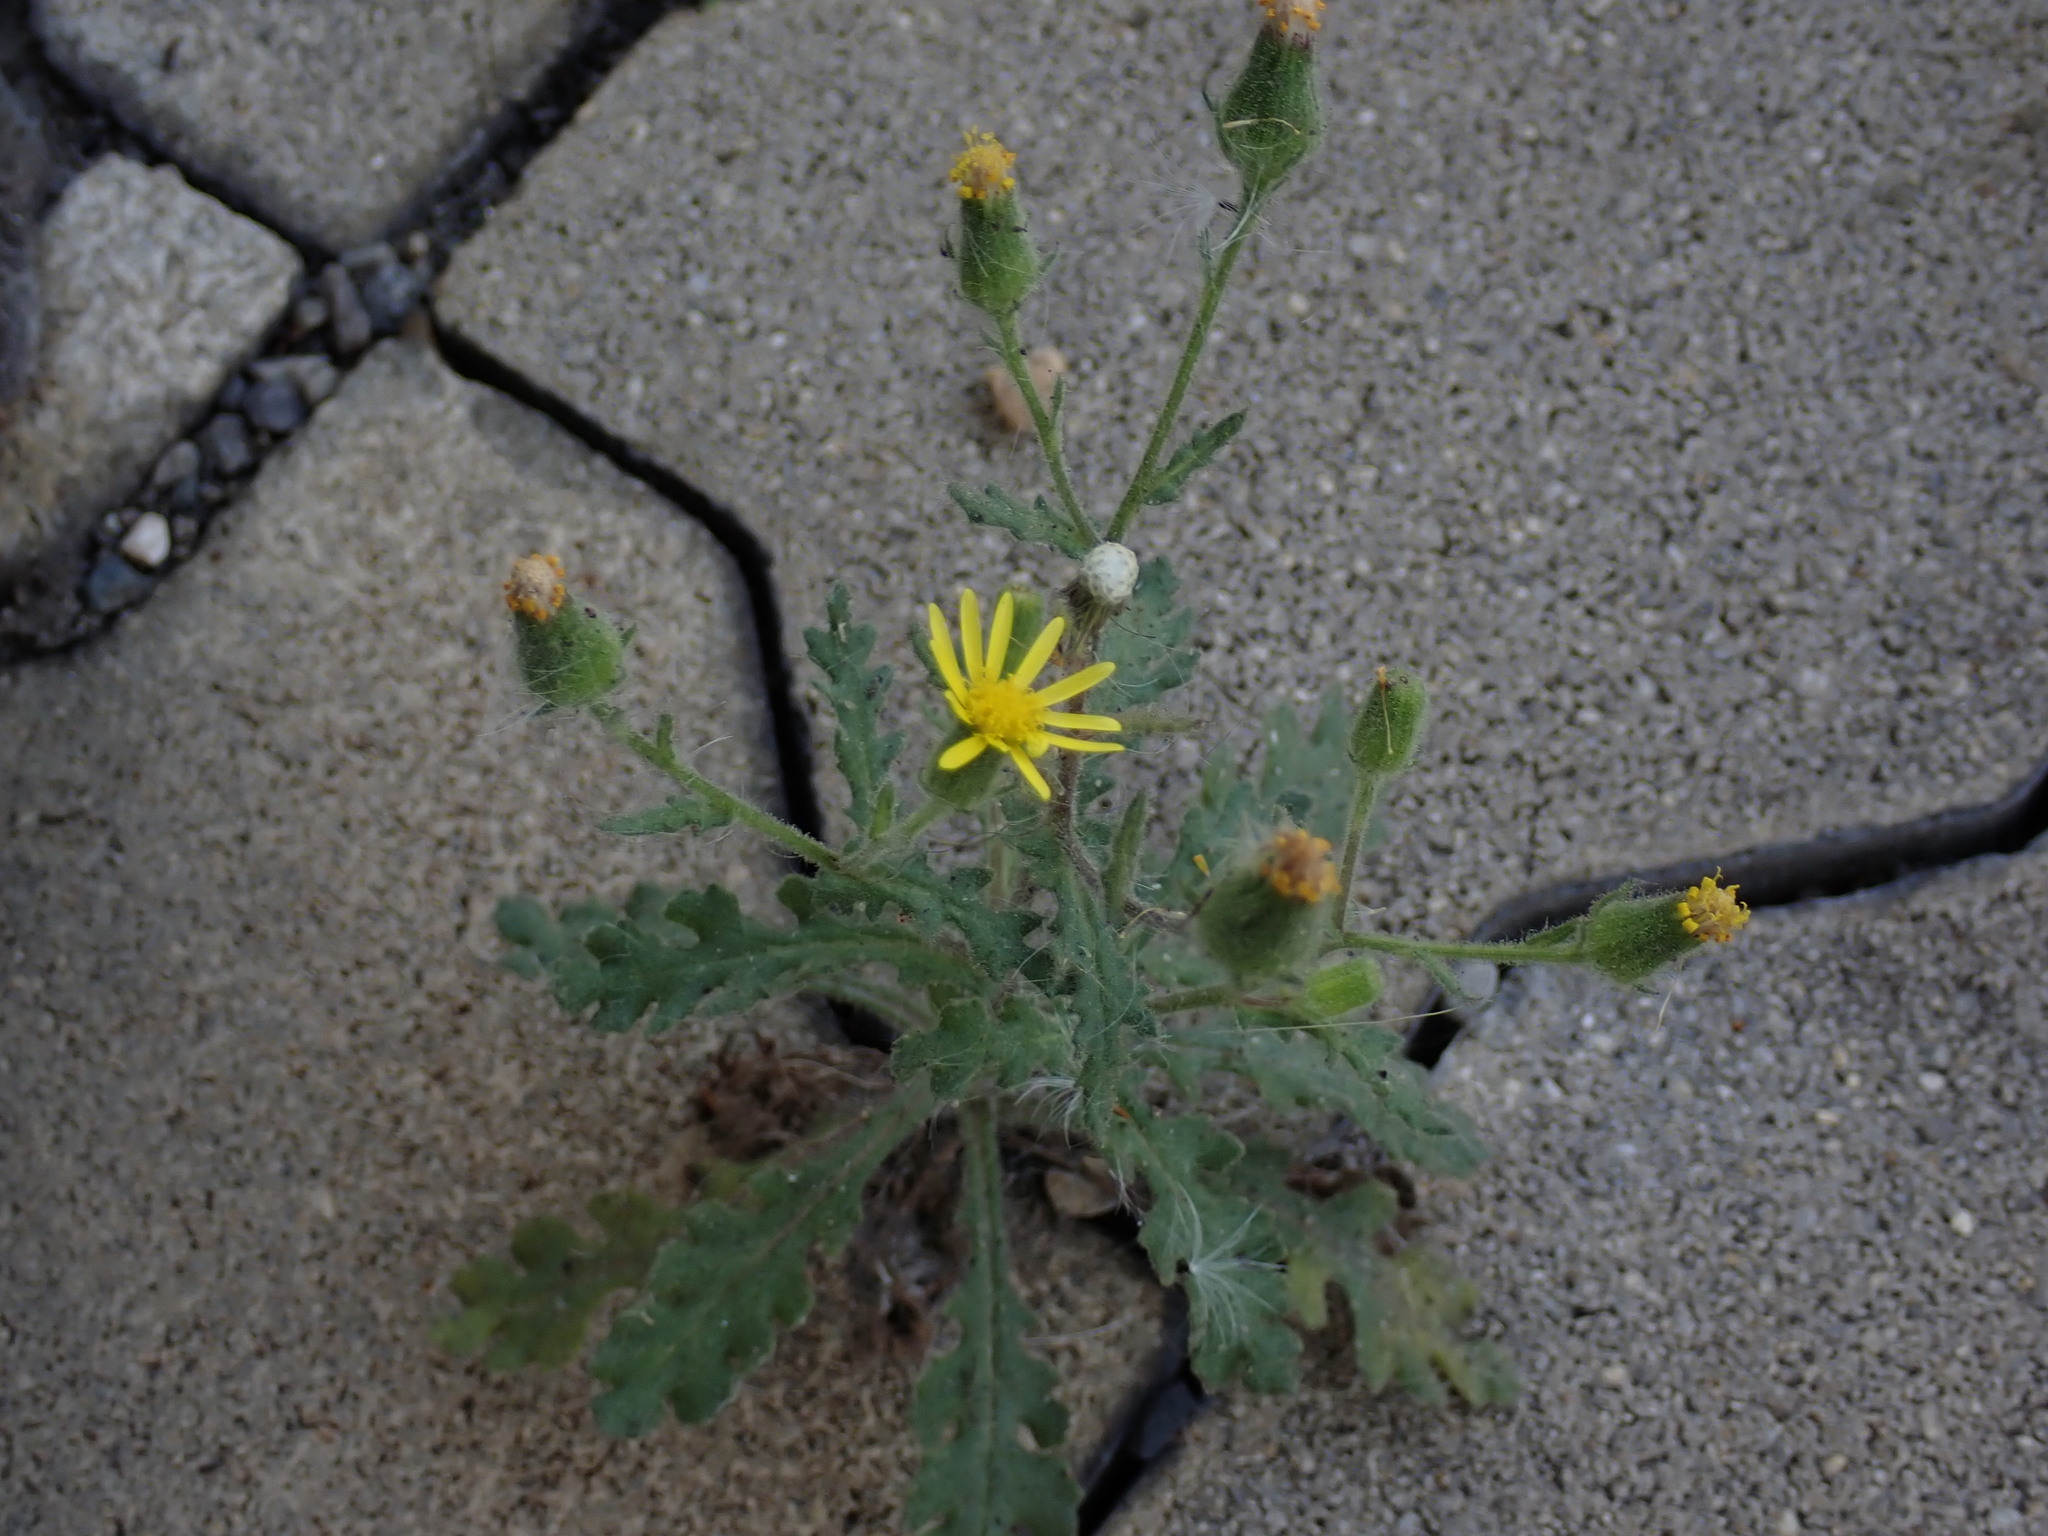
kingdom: Plantae
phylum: Tracheophyta
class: Magnoliopsida
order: Asterales
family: Asteraceae
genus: Senecio
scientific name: Senecio viscosus
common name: Sticky groundsel
